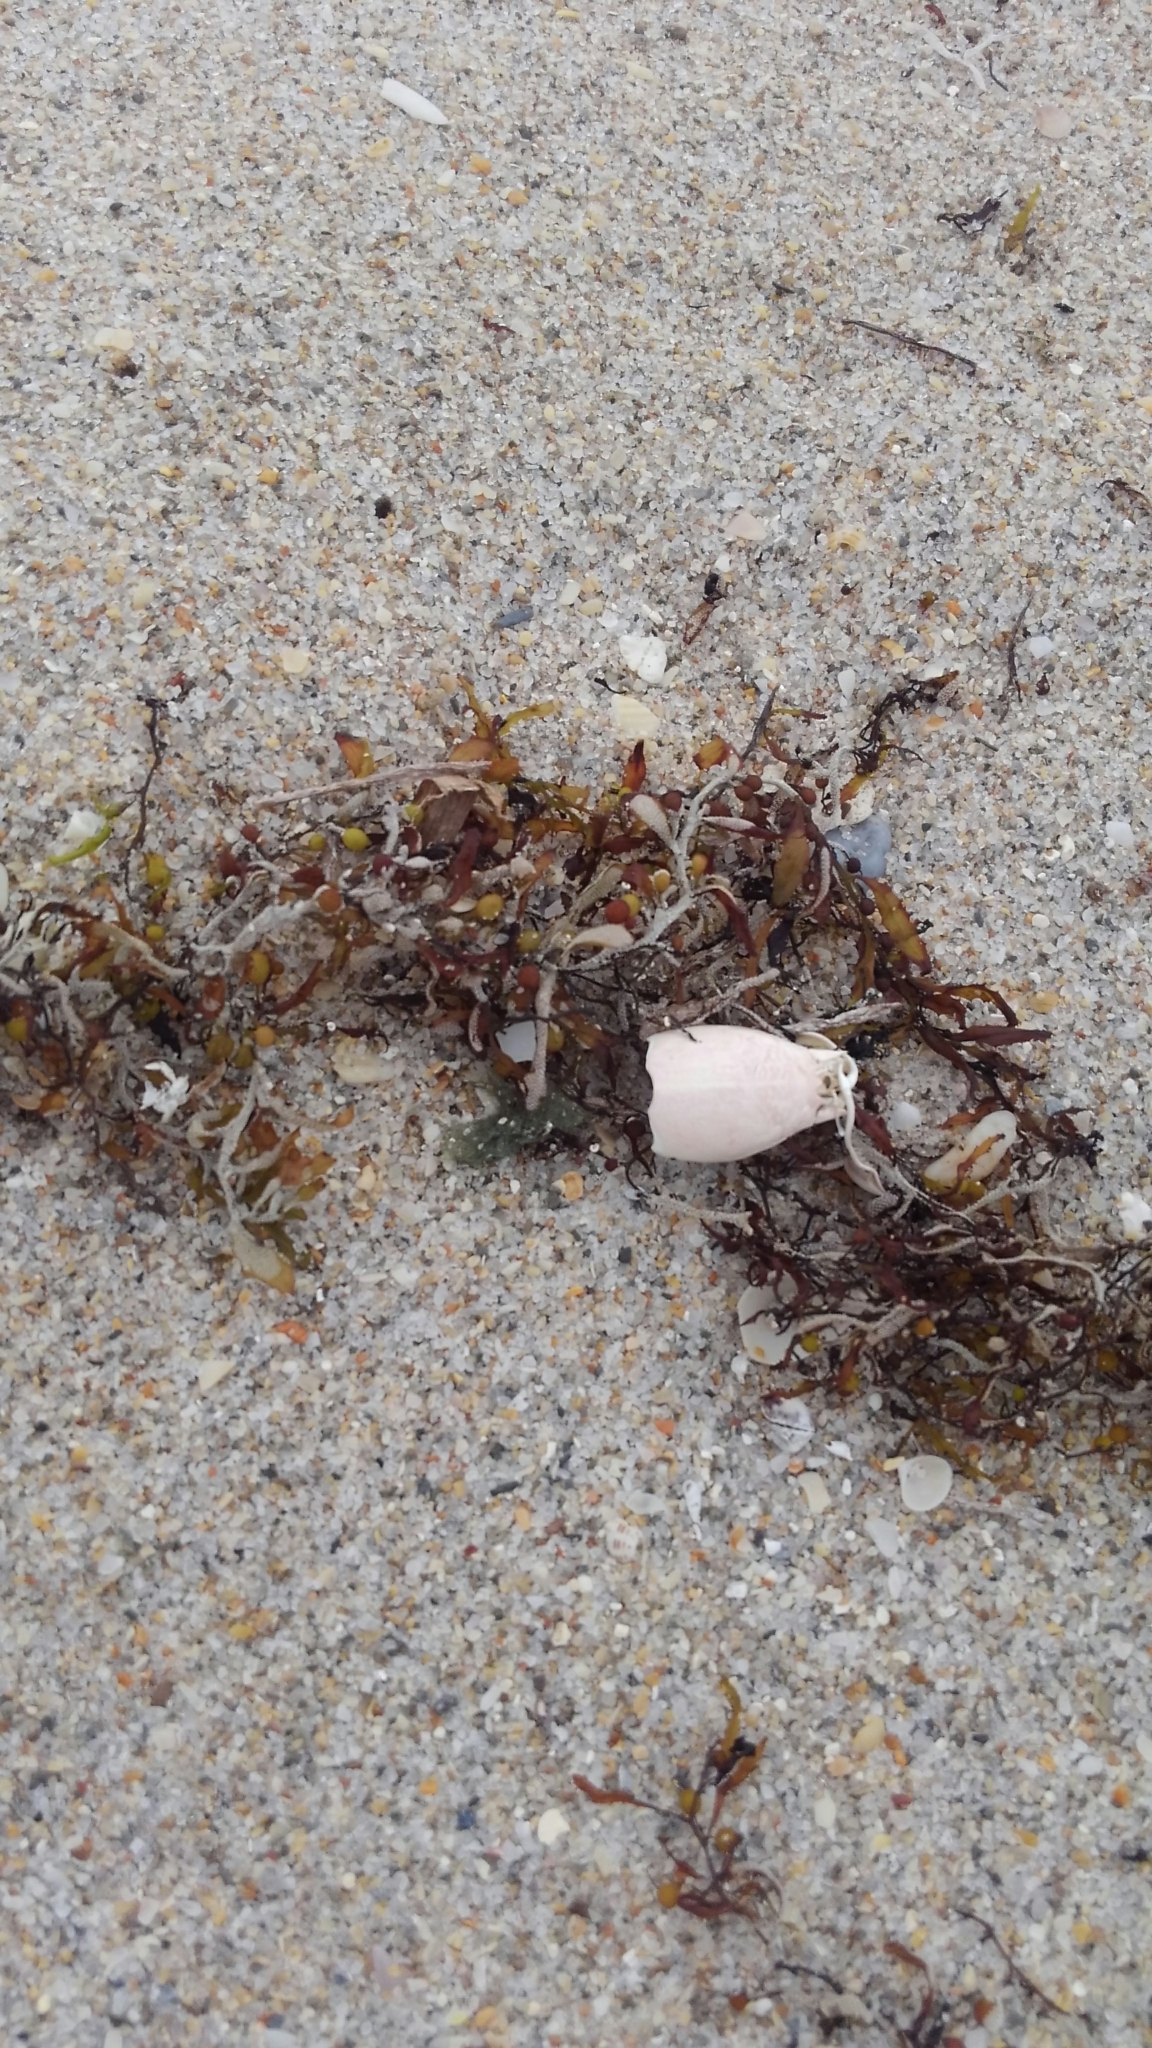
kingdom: Animalia
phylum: Arthropoda
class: Malacostraca
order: Decapoda
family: Hippidae
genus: Emerita
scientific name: Emerita talpoida
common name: Atlantic sand crab
